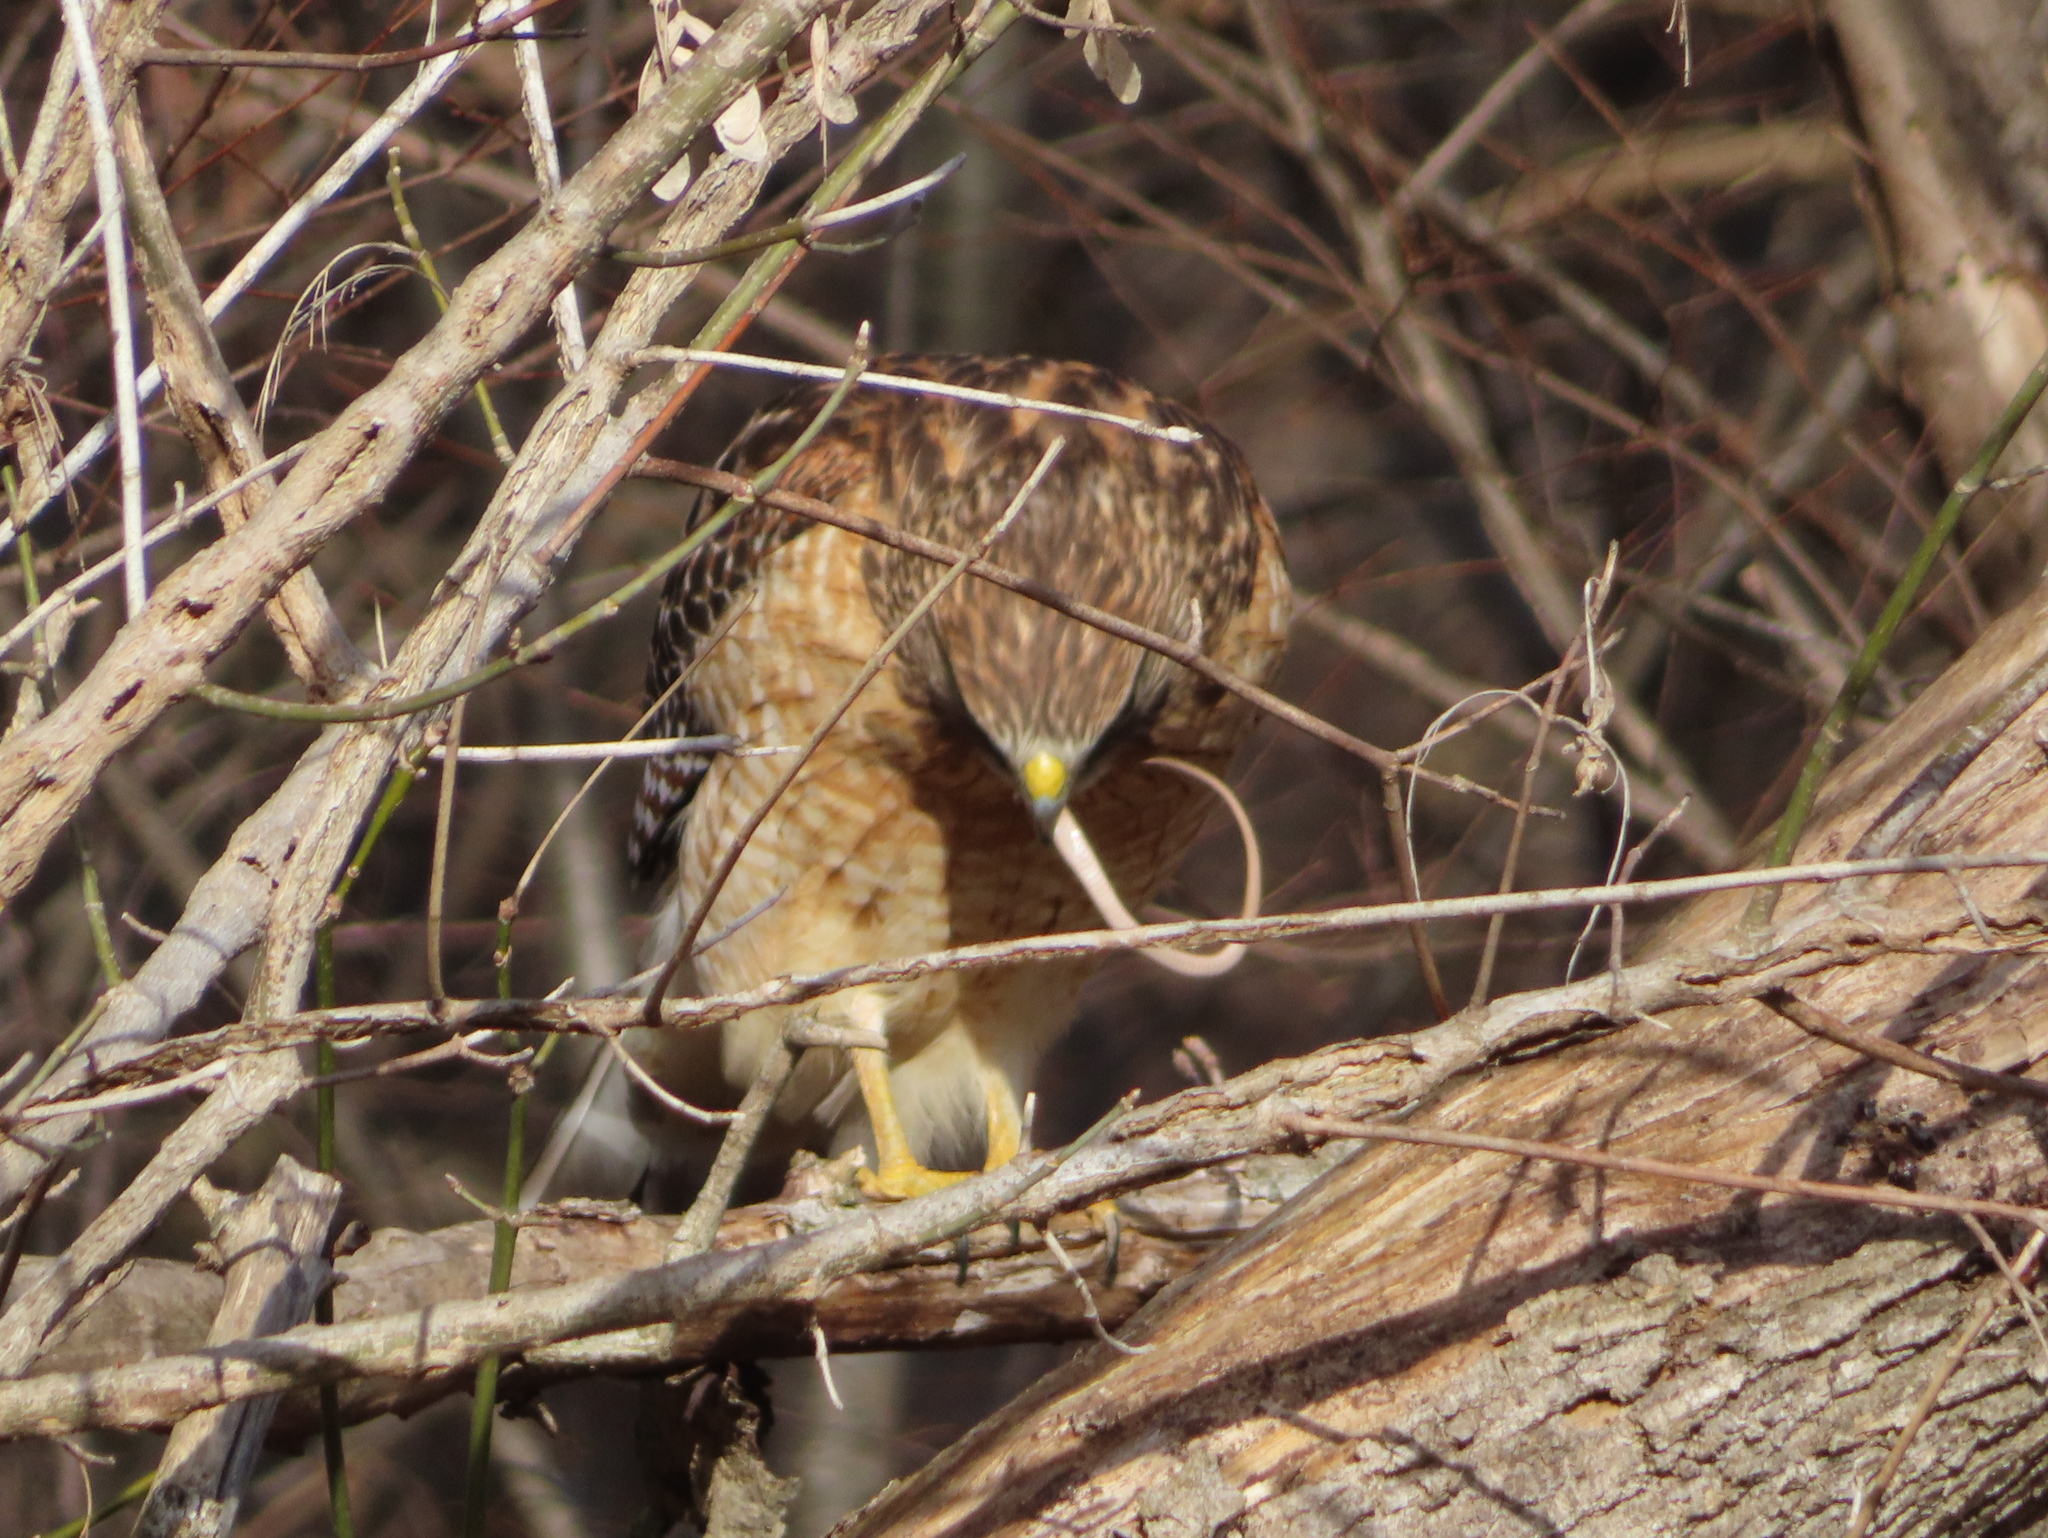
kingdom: Animalia
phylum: Chordata
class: Aves
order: Accipitriformes
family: Accipitridae
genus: Buteo
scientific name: Buteo lineatus
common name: Red-shouldered hawk
